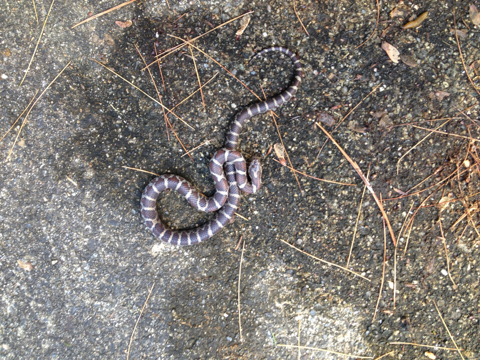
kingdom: Animalia
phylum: Chordata
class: Squamata
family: Colubridae
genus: Lampropeltis
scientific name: Lampropeltis triangulum
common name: Eastern milksnake
